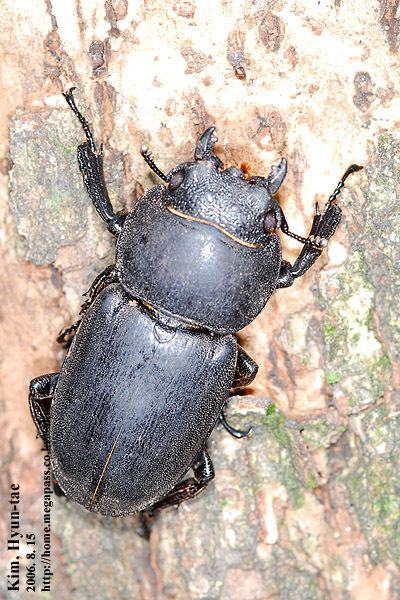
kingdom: Animalia
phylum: Arthropoda
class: Insecta
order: Coleoptera
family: Lucanidae
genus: Serrognathus
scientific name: Serrognathus titanus
